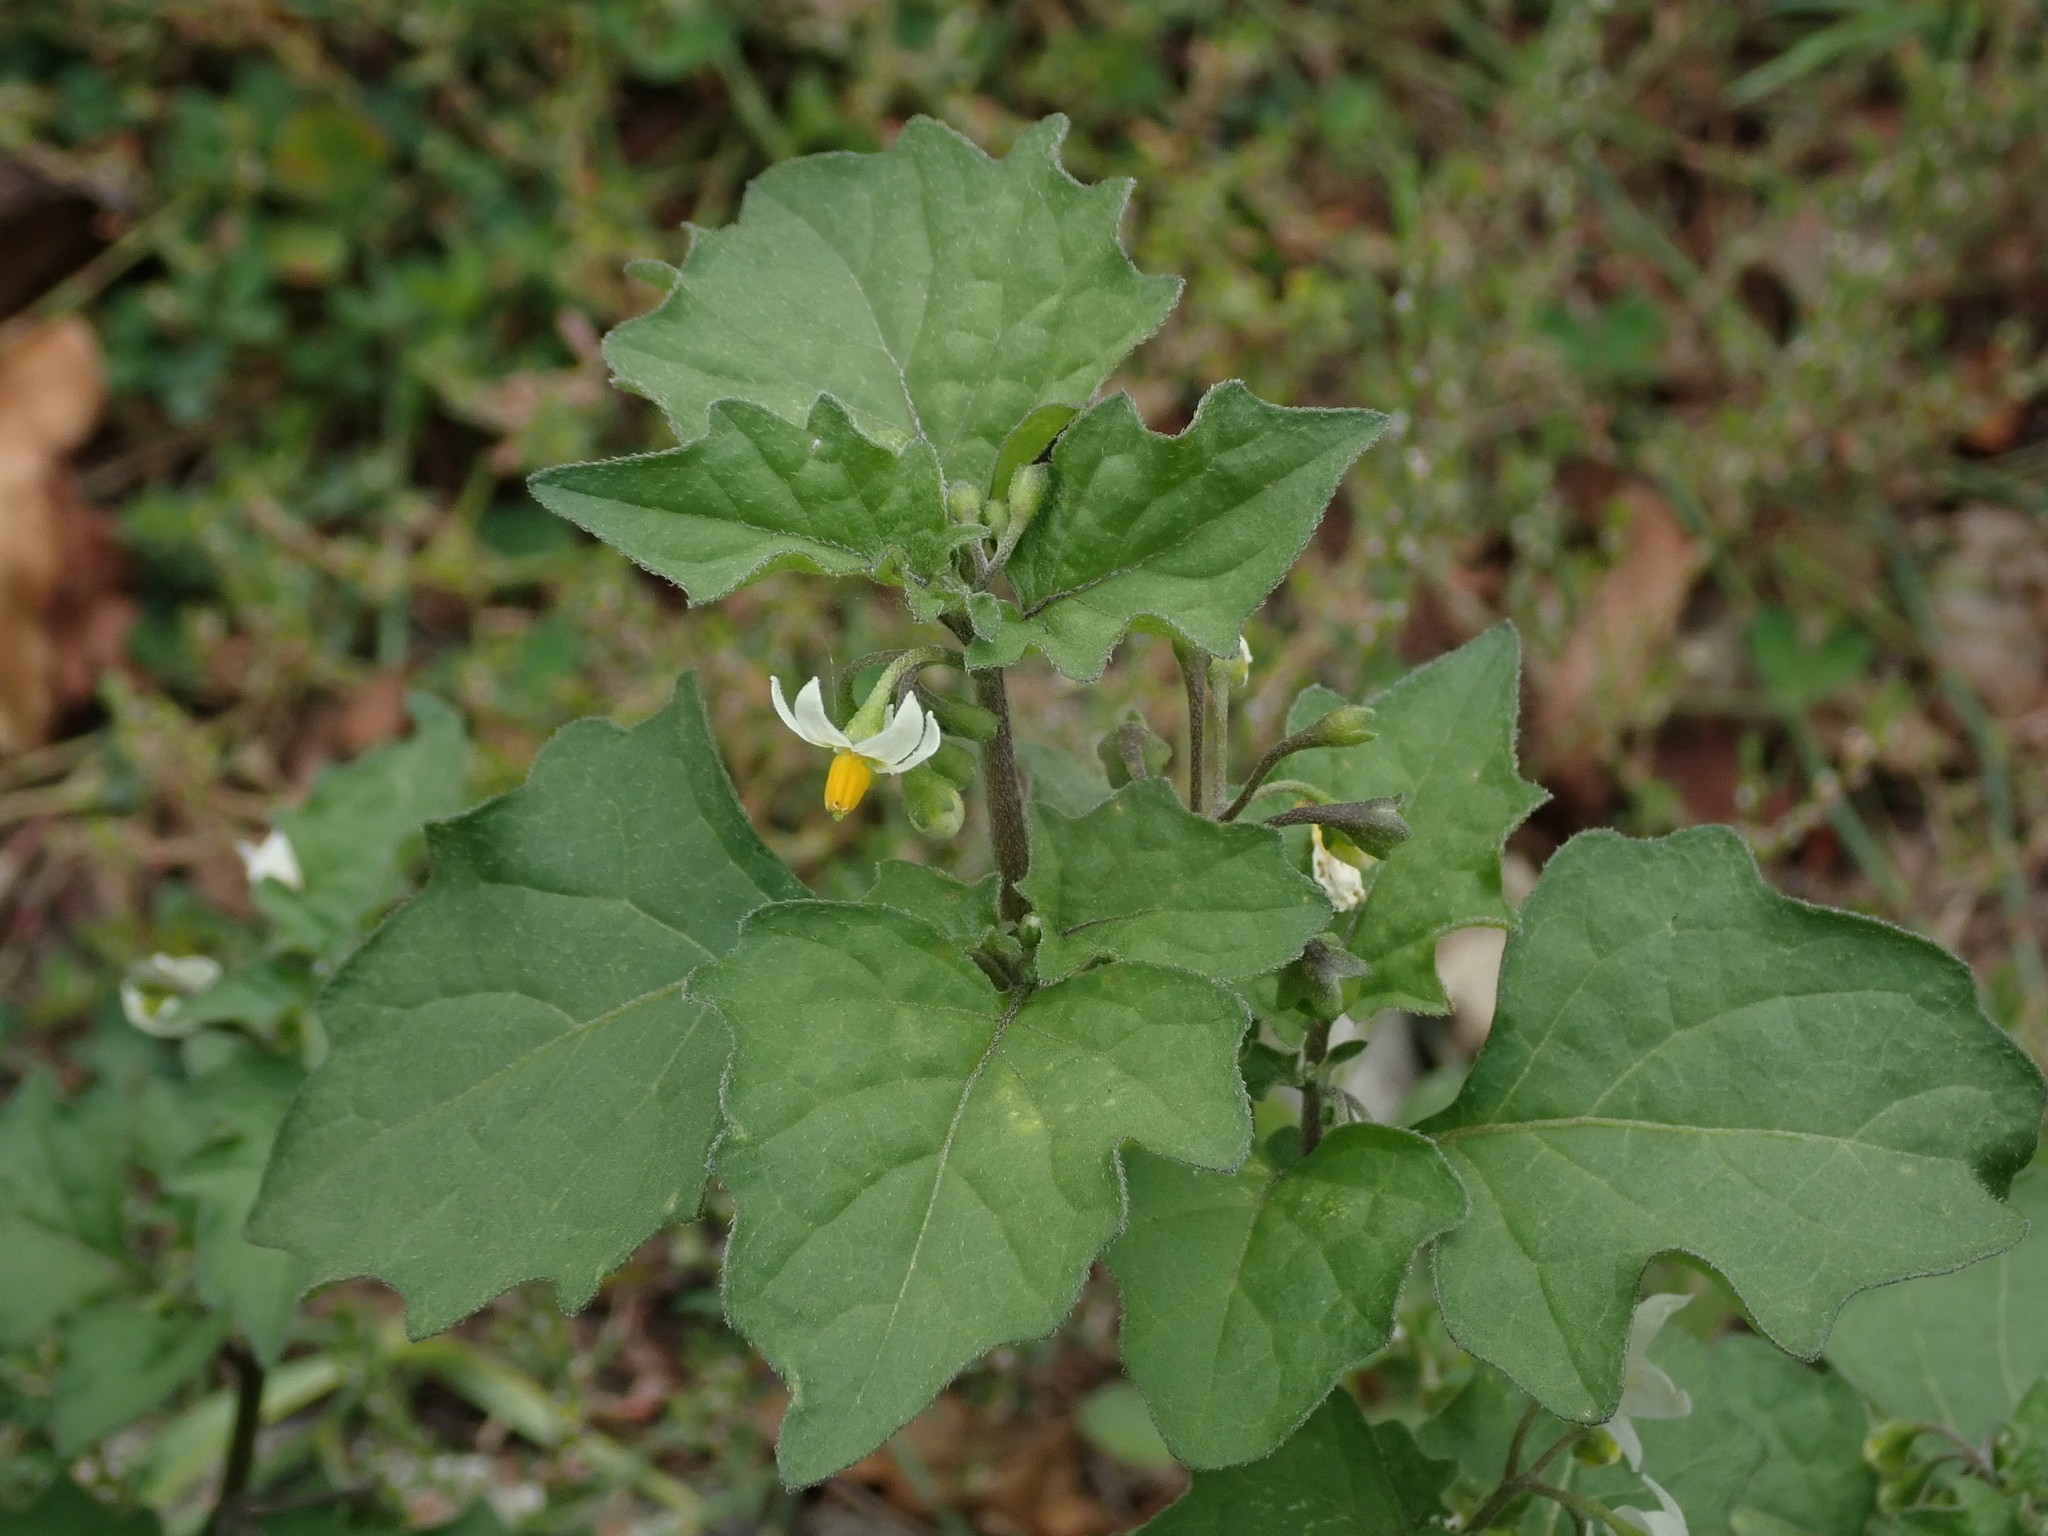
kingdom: Plantae
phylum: Tracheophyta
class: Magnoliopsida
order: Solanales
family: Solanaceae
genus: Solanum
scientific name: Solanum nigrum
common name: Black nightshade
